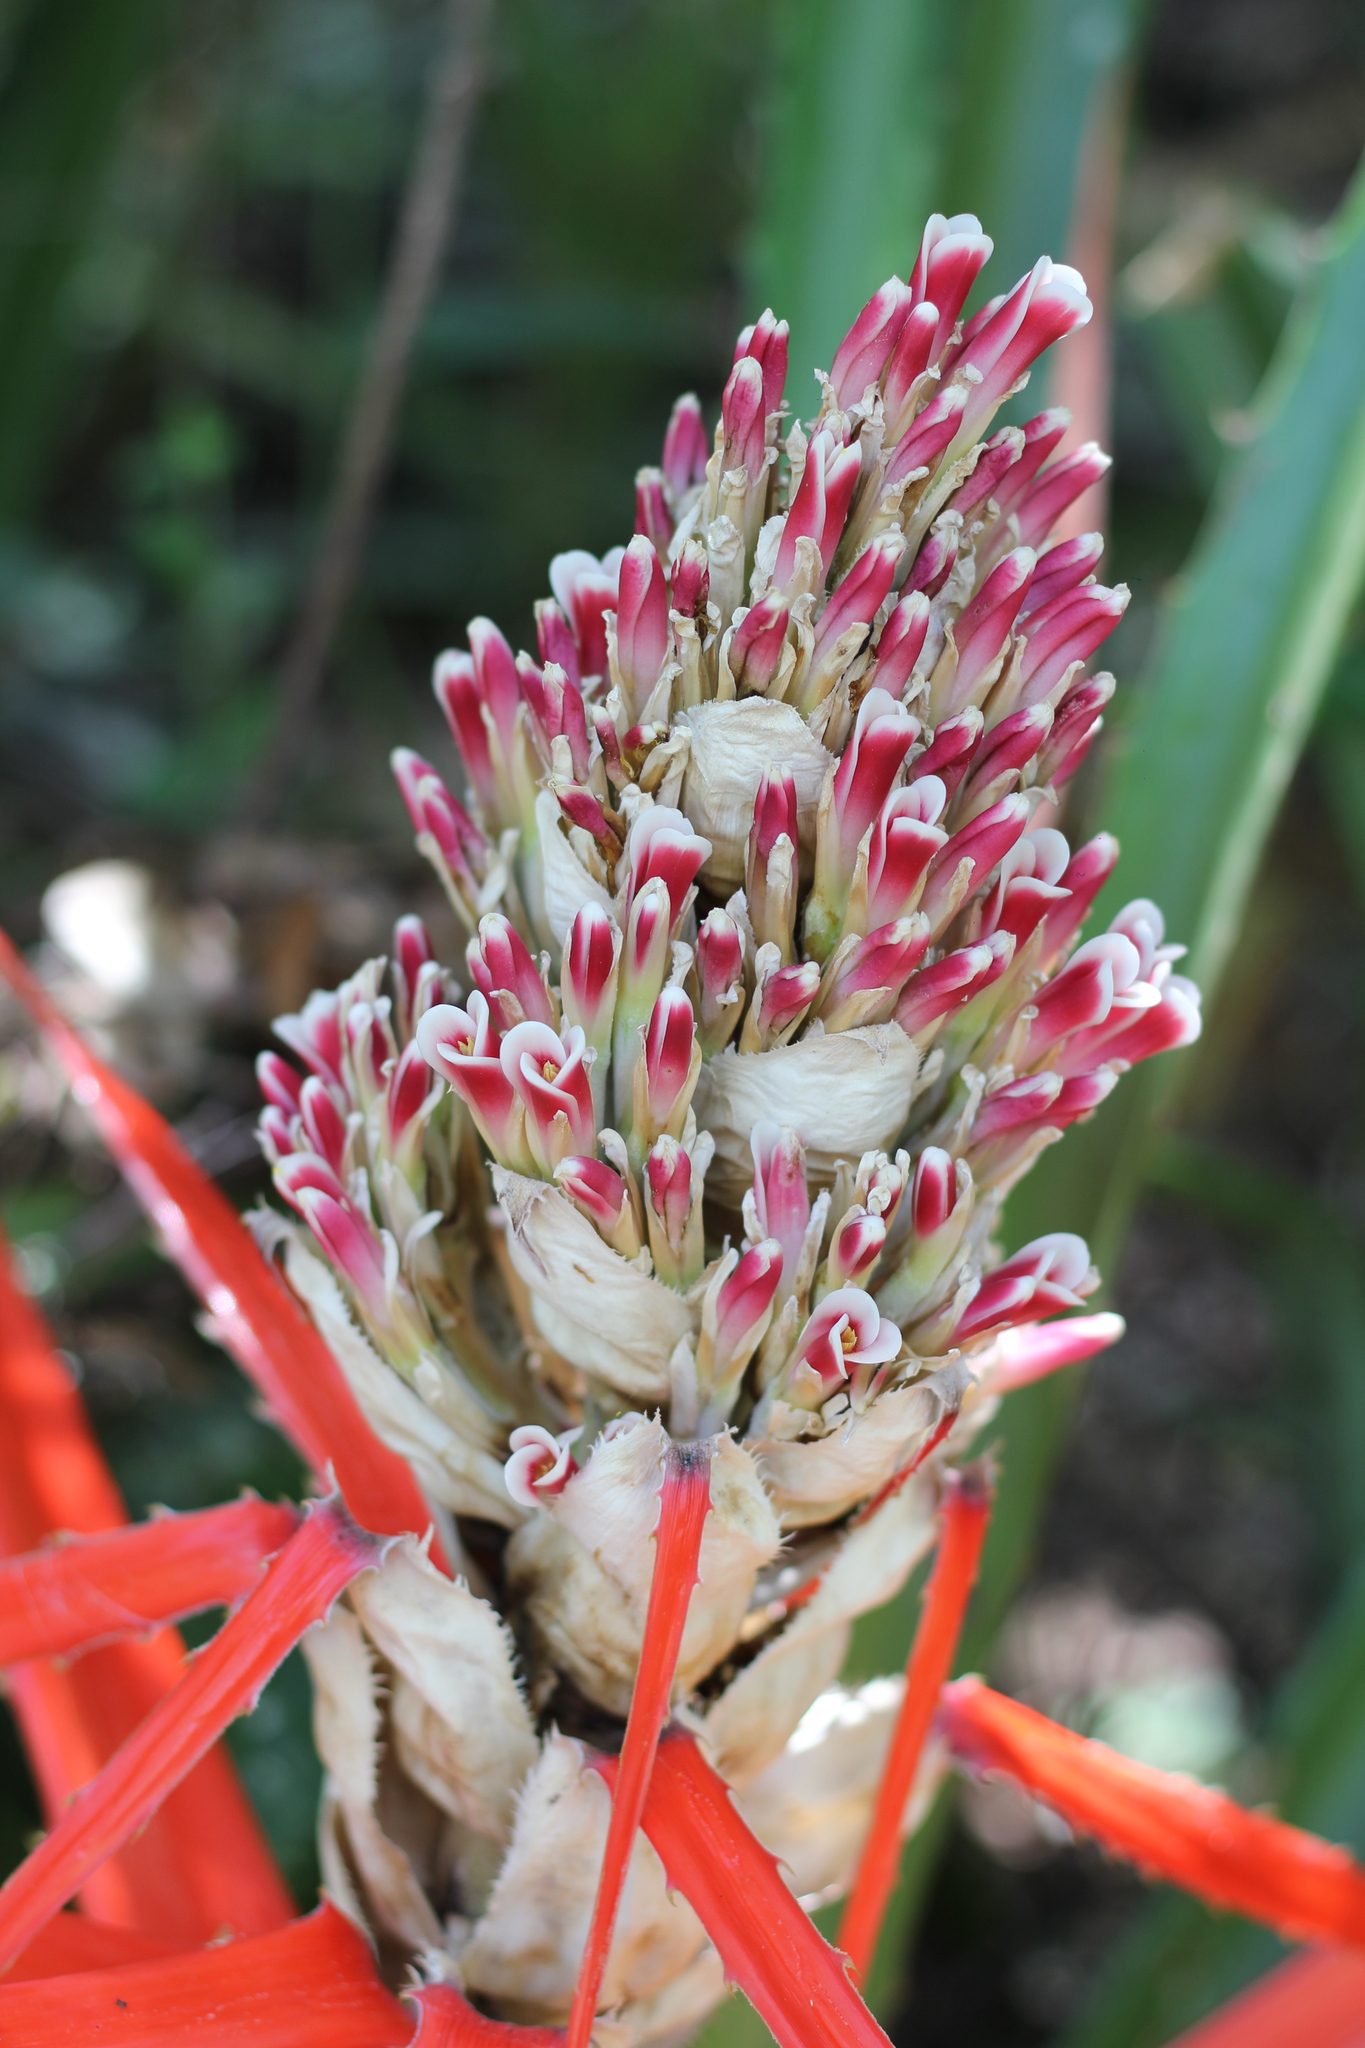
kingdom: Plantae
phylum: Tracheophyta
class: Liliopsida
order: Poales
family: Bromeliaceae
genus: Bromelia
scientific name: Bromelia balansae
